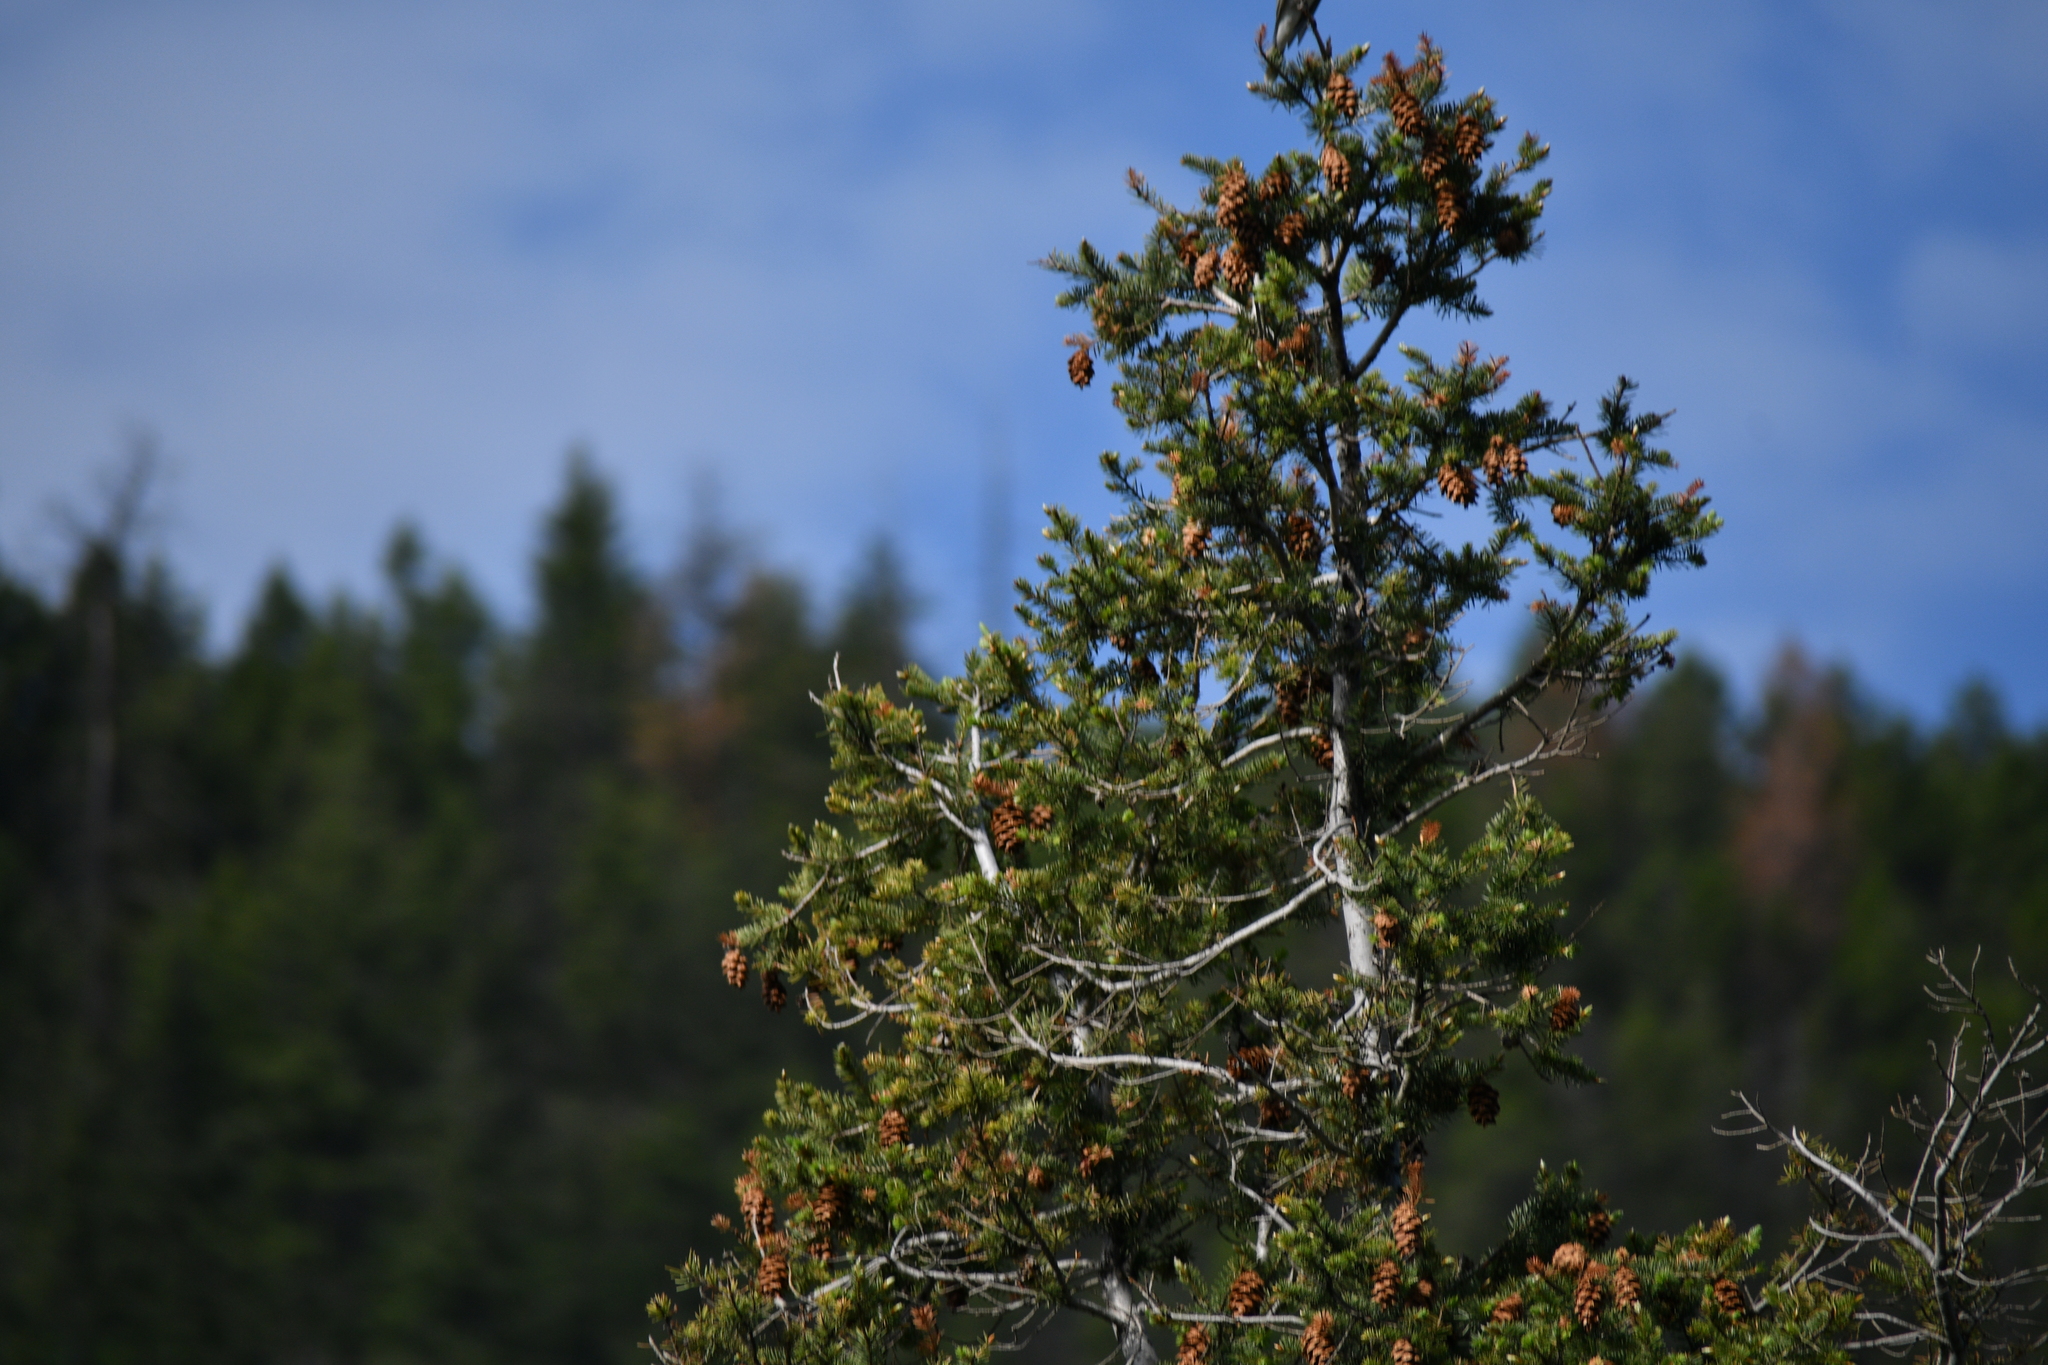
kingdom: Plantae
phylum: Tracheophyta
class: Pinopsida
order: Pinales
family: Pinaceae
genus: Pseudotsuga
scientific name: Pseudotsuga menziesii
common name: Douglas fir
